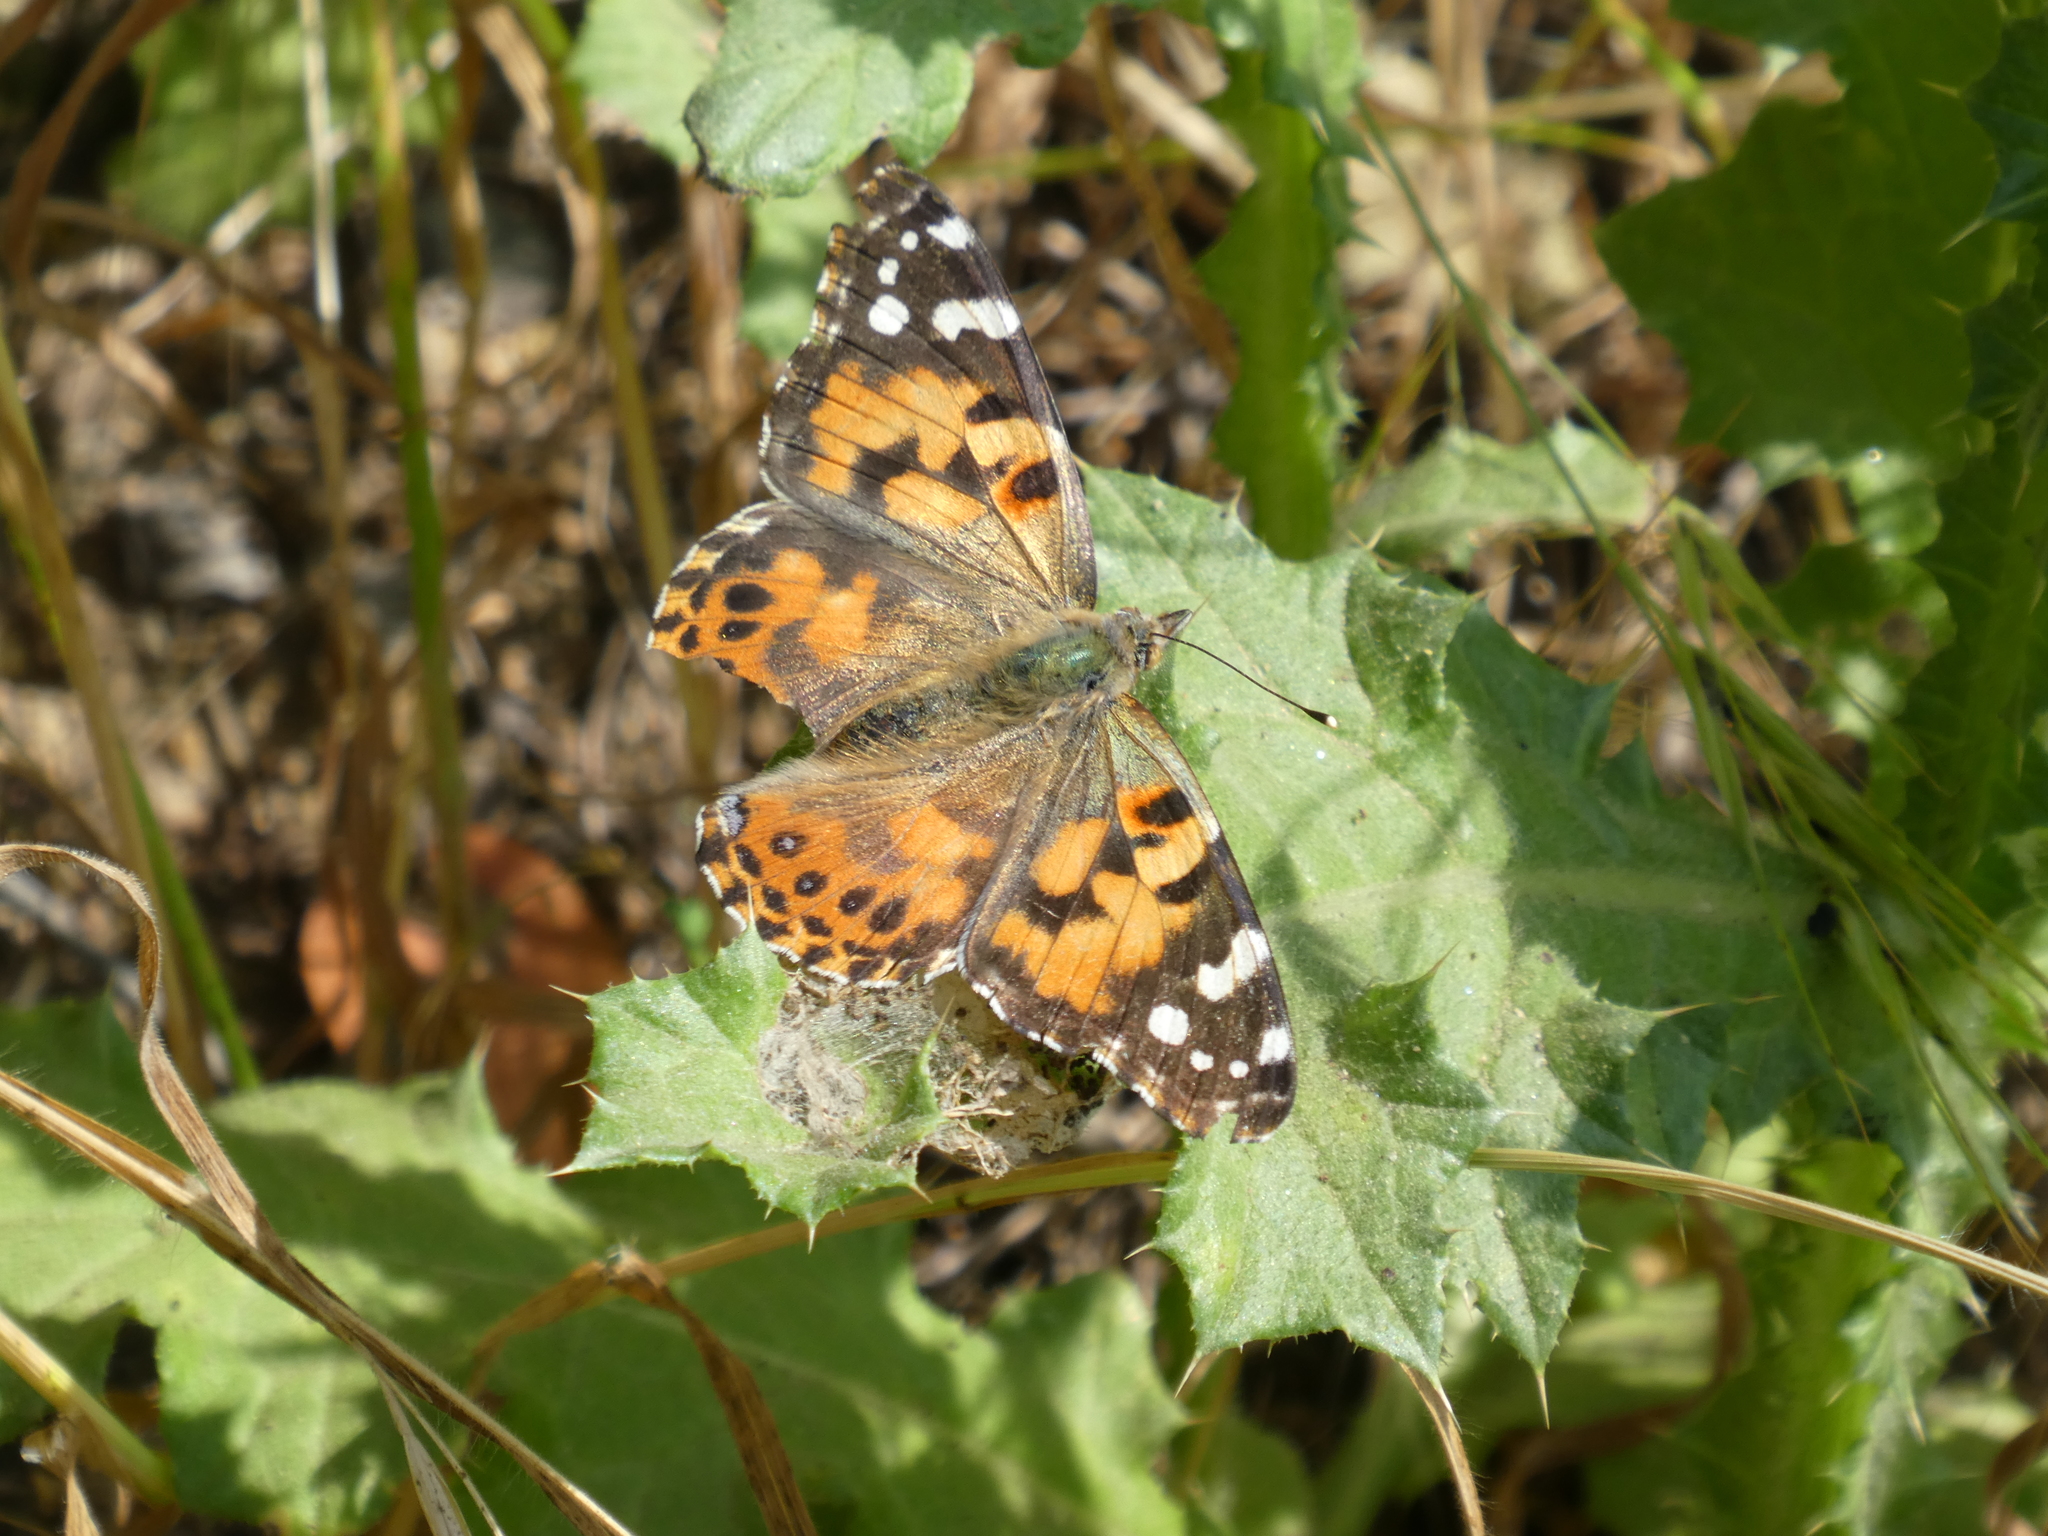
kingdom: Animalia
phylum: Arthropoda
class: Insecta
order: Lepidoptera
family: Nymphalidae
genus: Vanessa
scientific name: Vanessa cardui
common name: Painted lady
